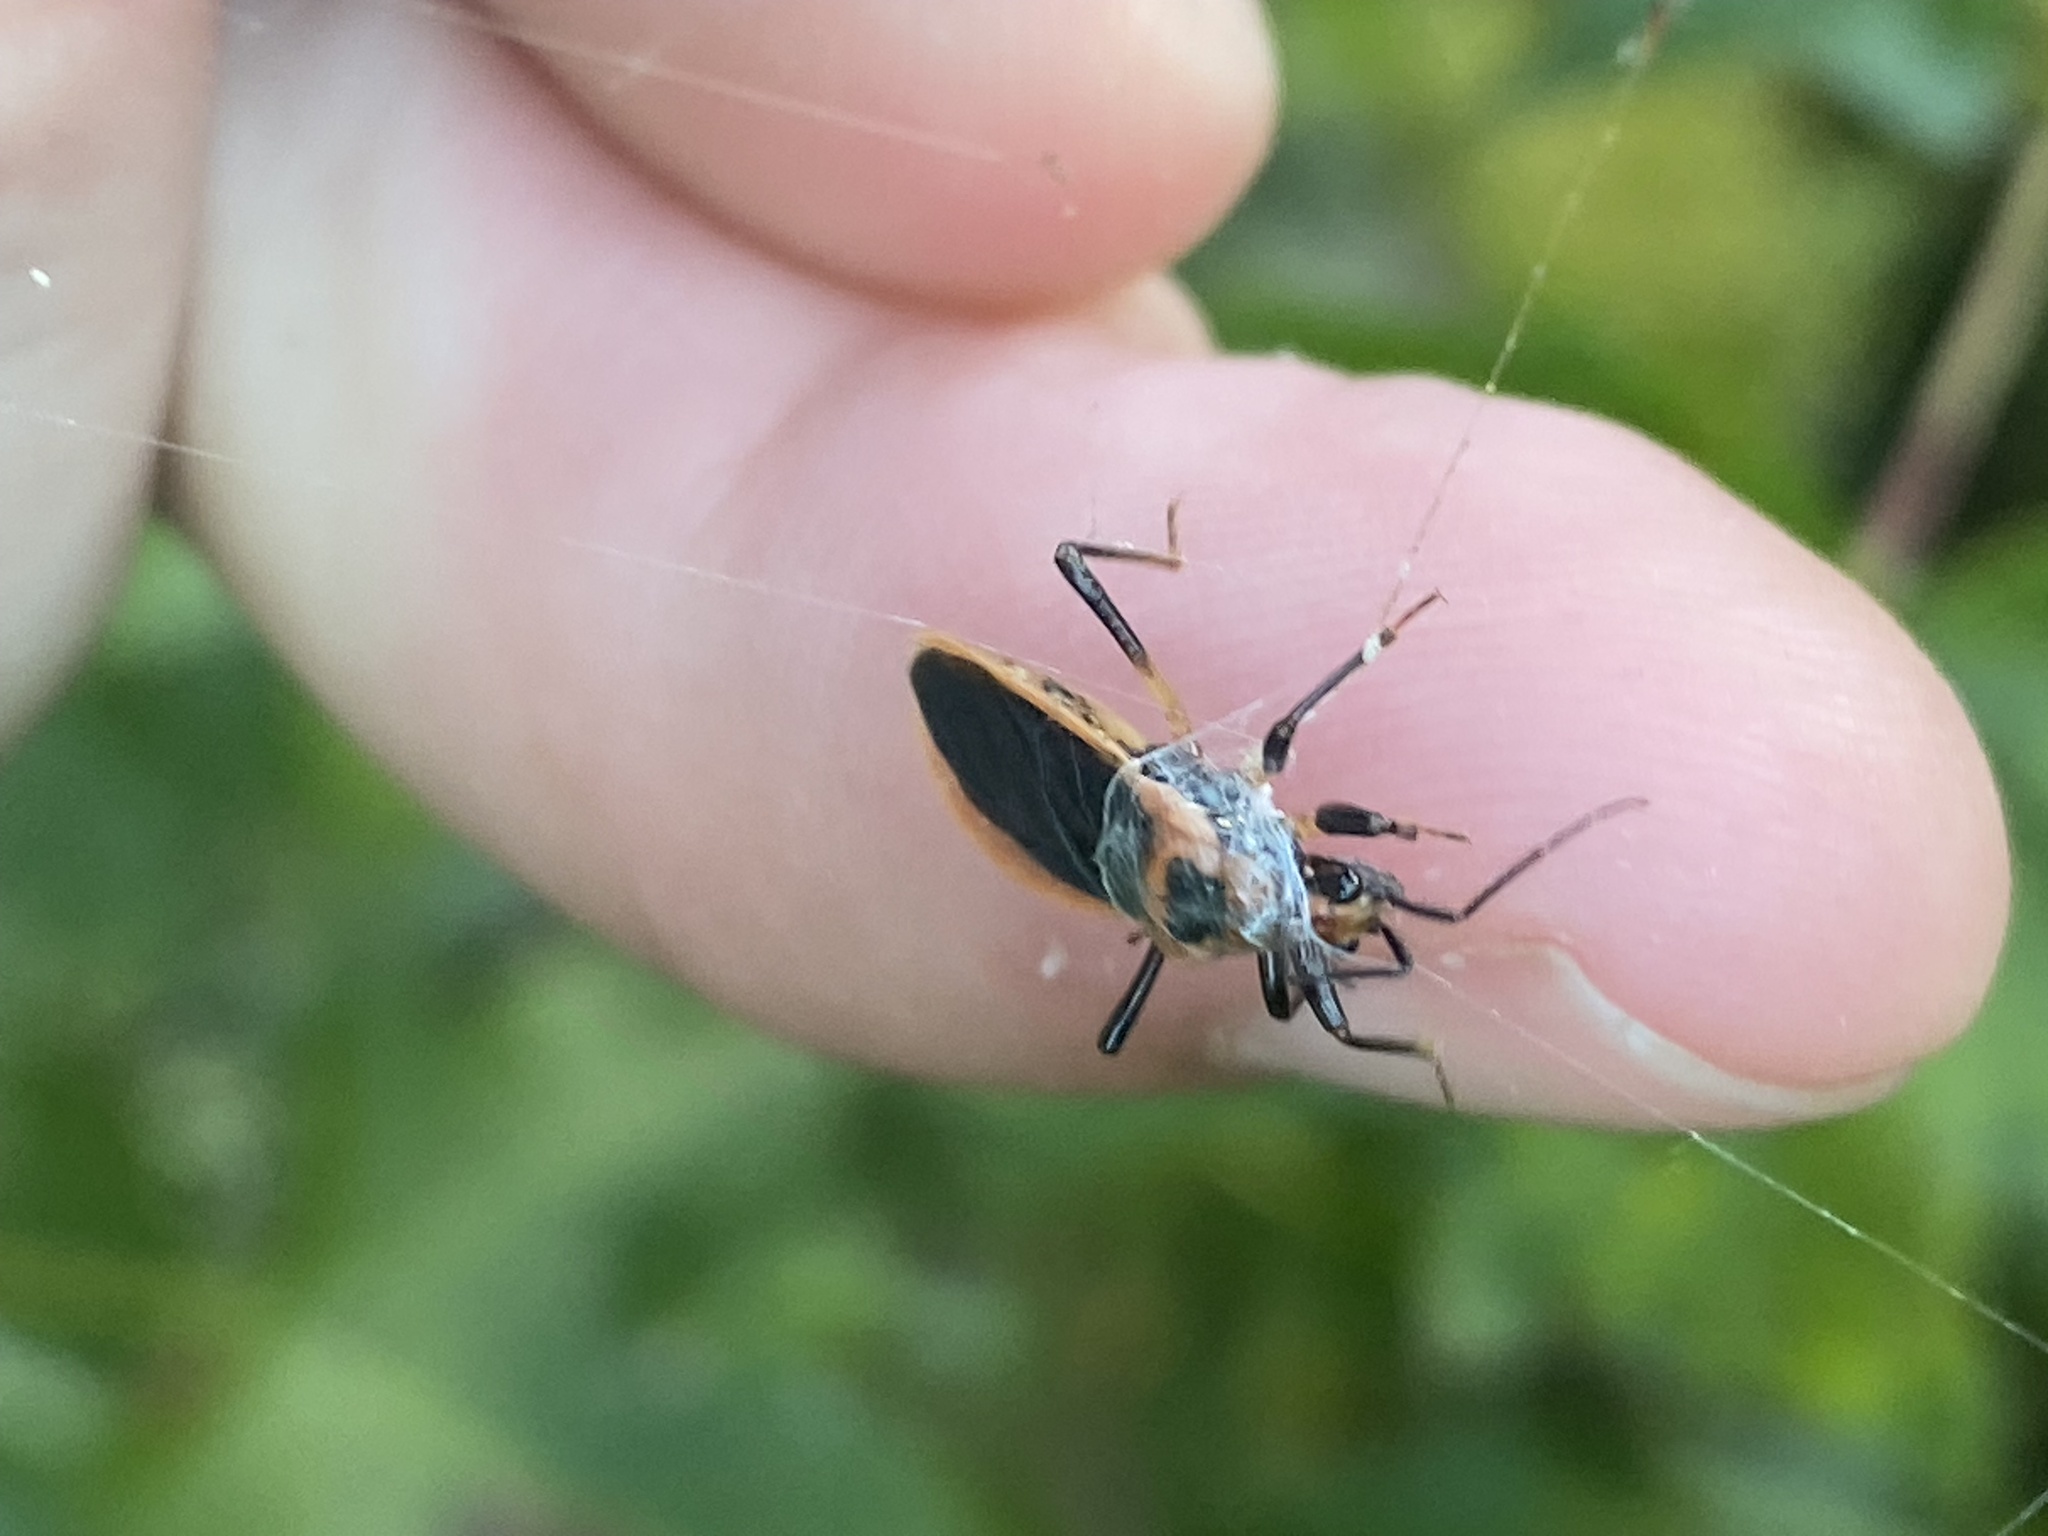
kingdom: Animalia
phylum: Arthropoda
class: Insecta
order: Hemiptera
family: Reduviidae
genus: Rhiginia
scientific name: Rhiginia cruciata
